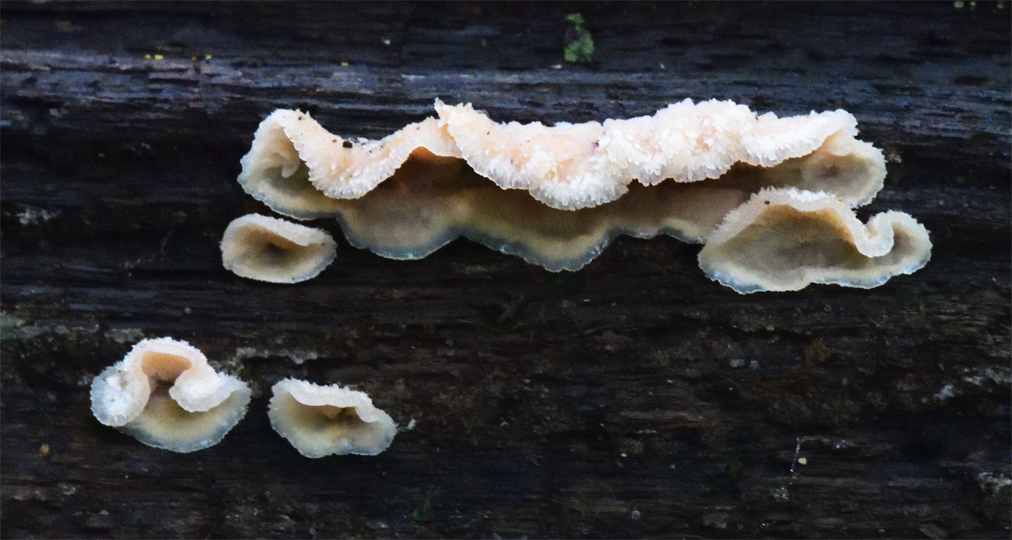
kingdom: Fungi
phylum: Basidiomycota
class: Agaricomycetes
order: Polyporales
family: Meruliaceae
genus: Phlebia
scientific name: Phlebia tremellosa
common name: Jelly rot
